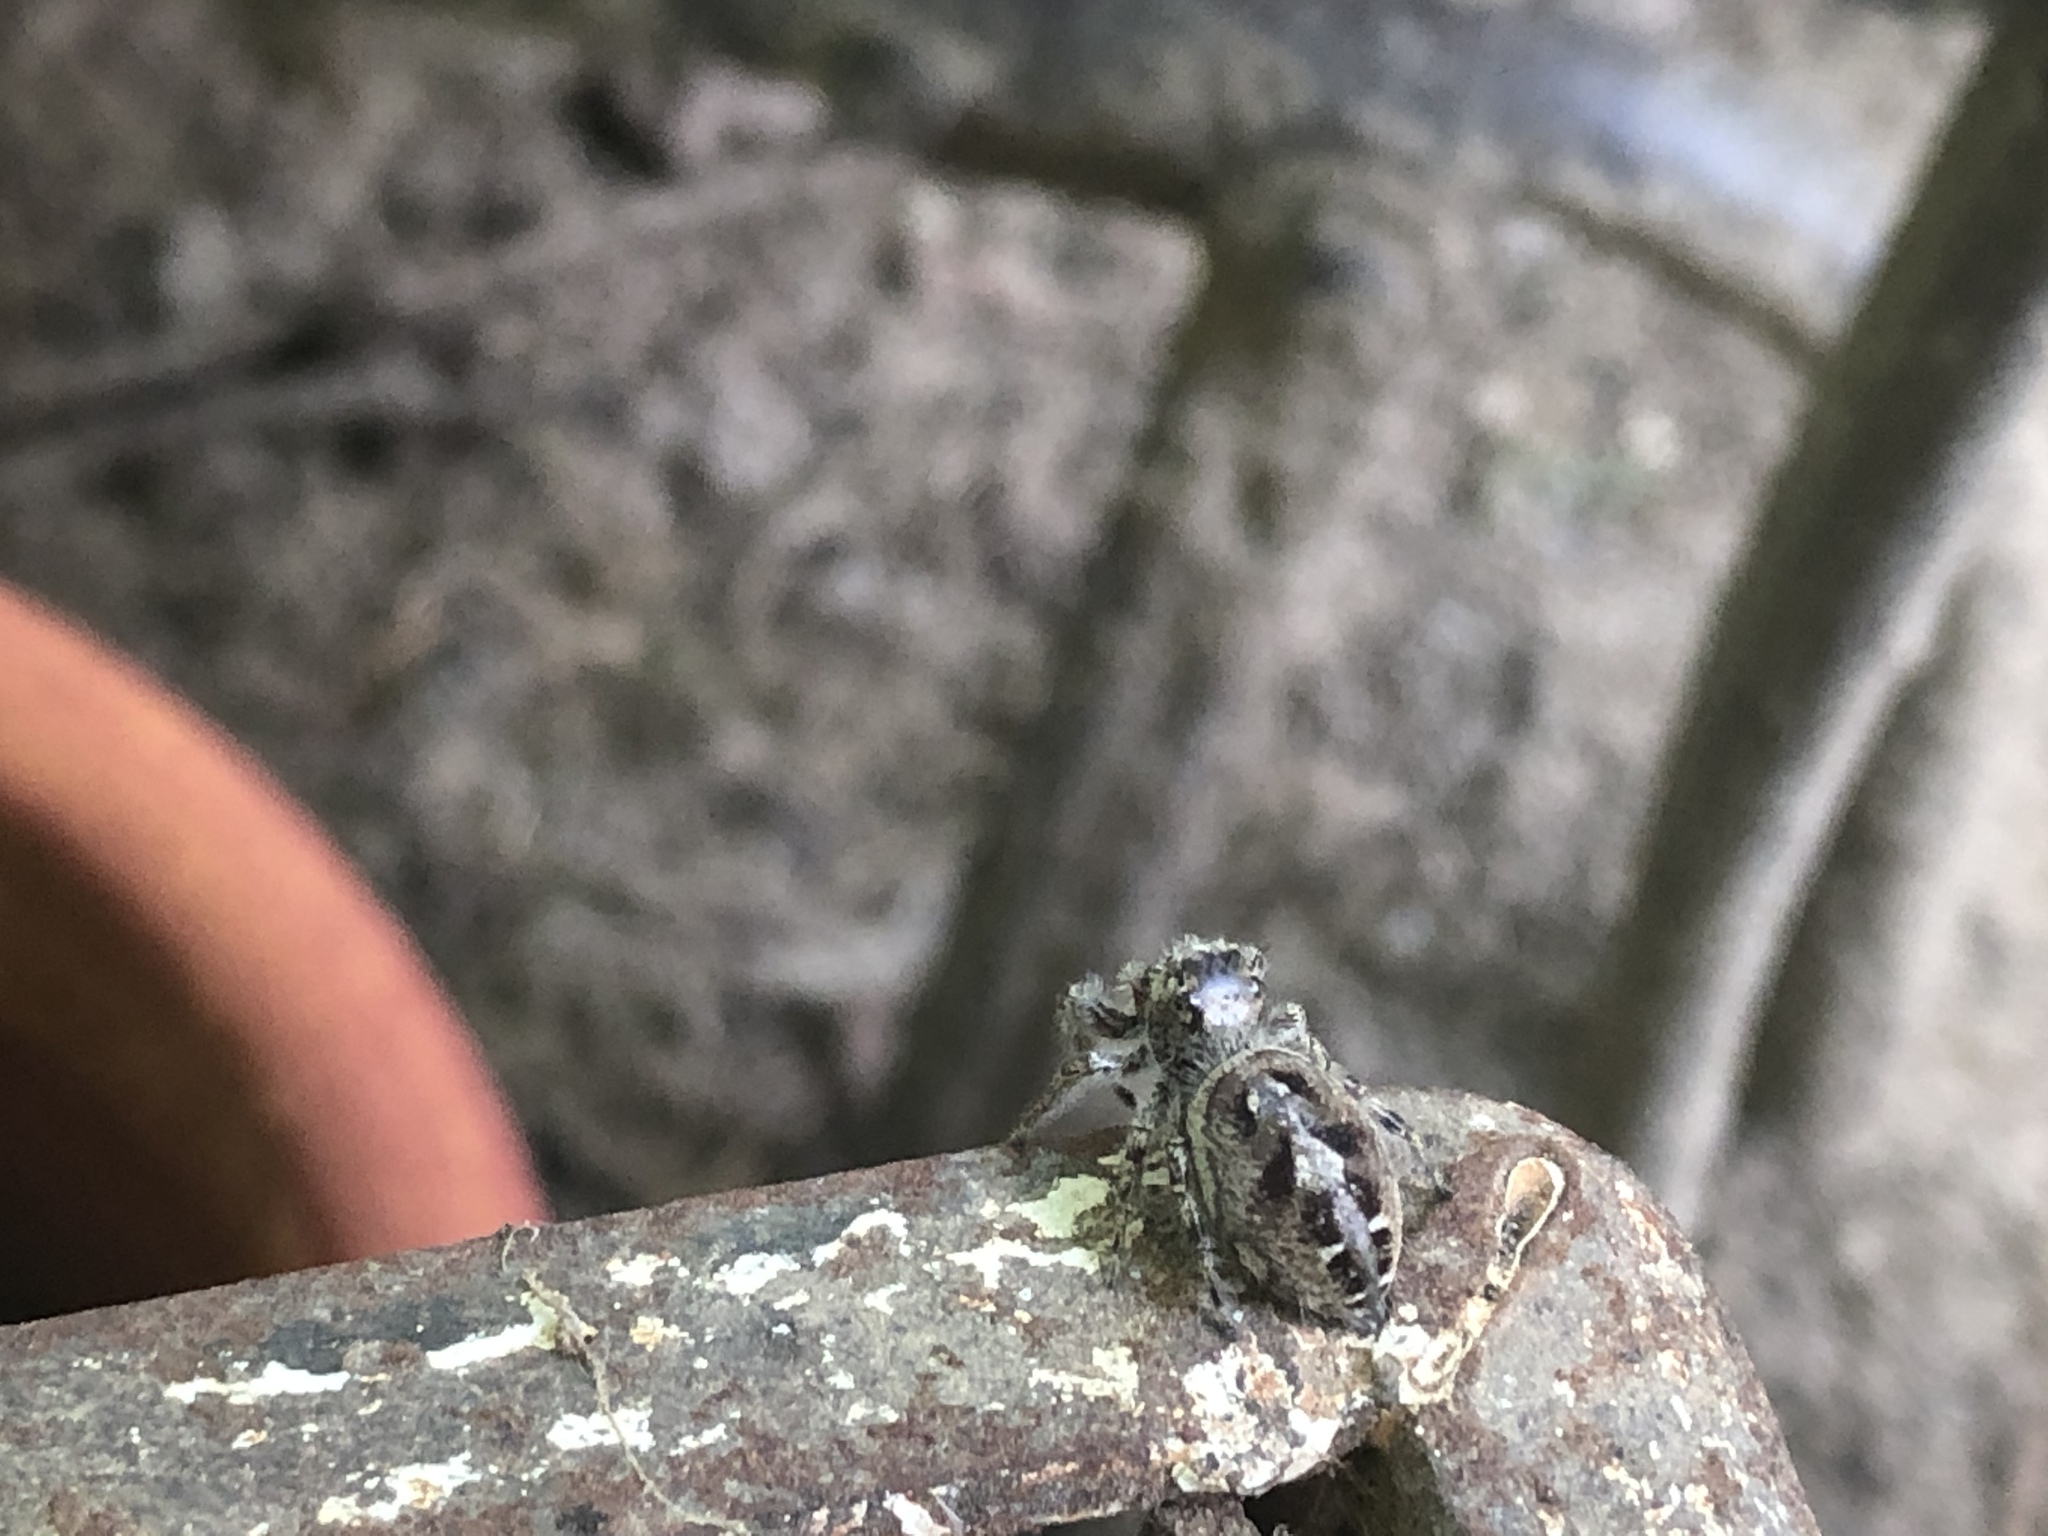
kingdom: Animalia
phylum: Arthropoda
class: Arachnida
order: Araneae
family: Salticidae
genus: Phidippus
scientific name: Phidippus putnami
